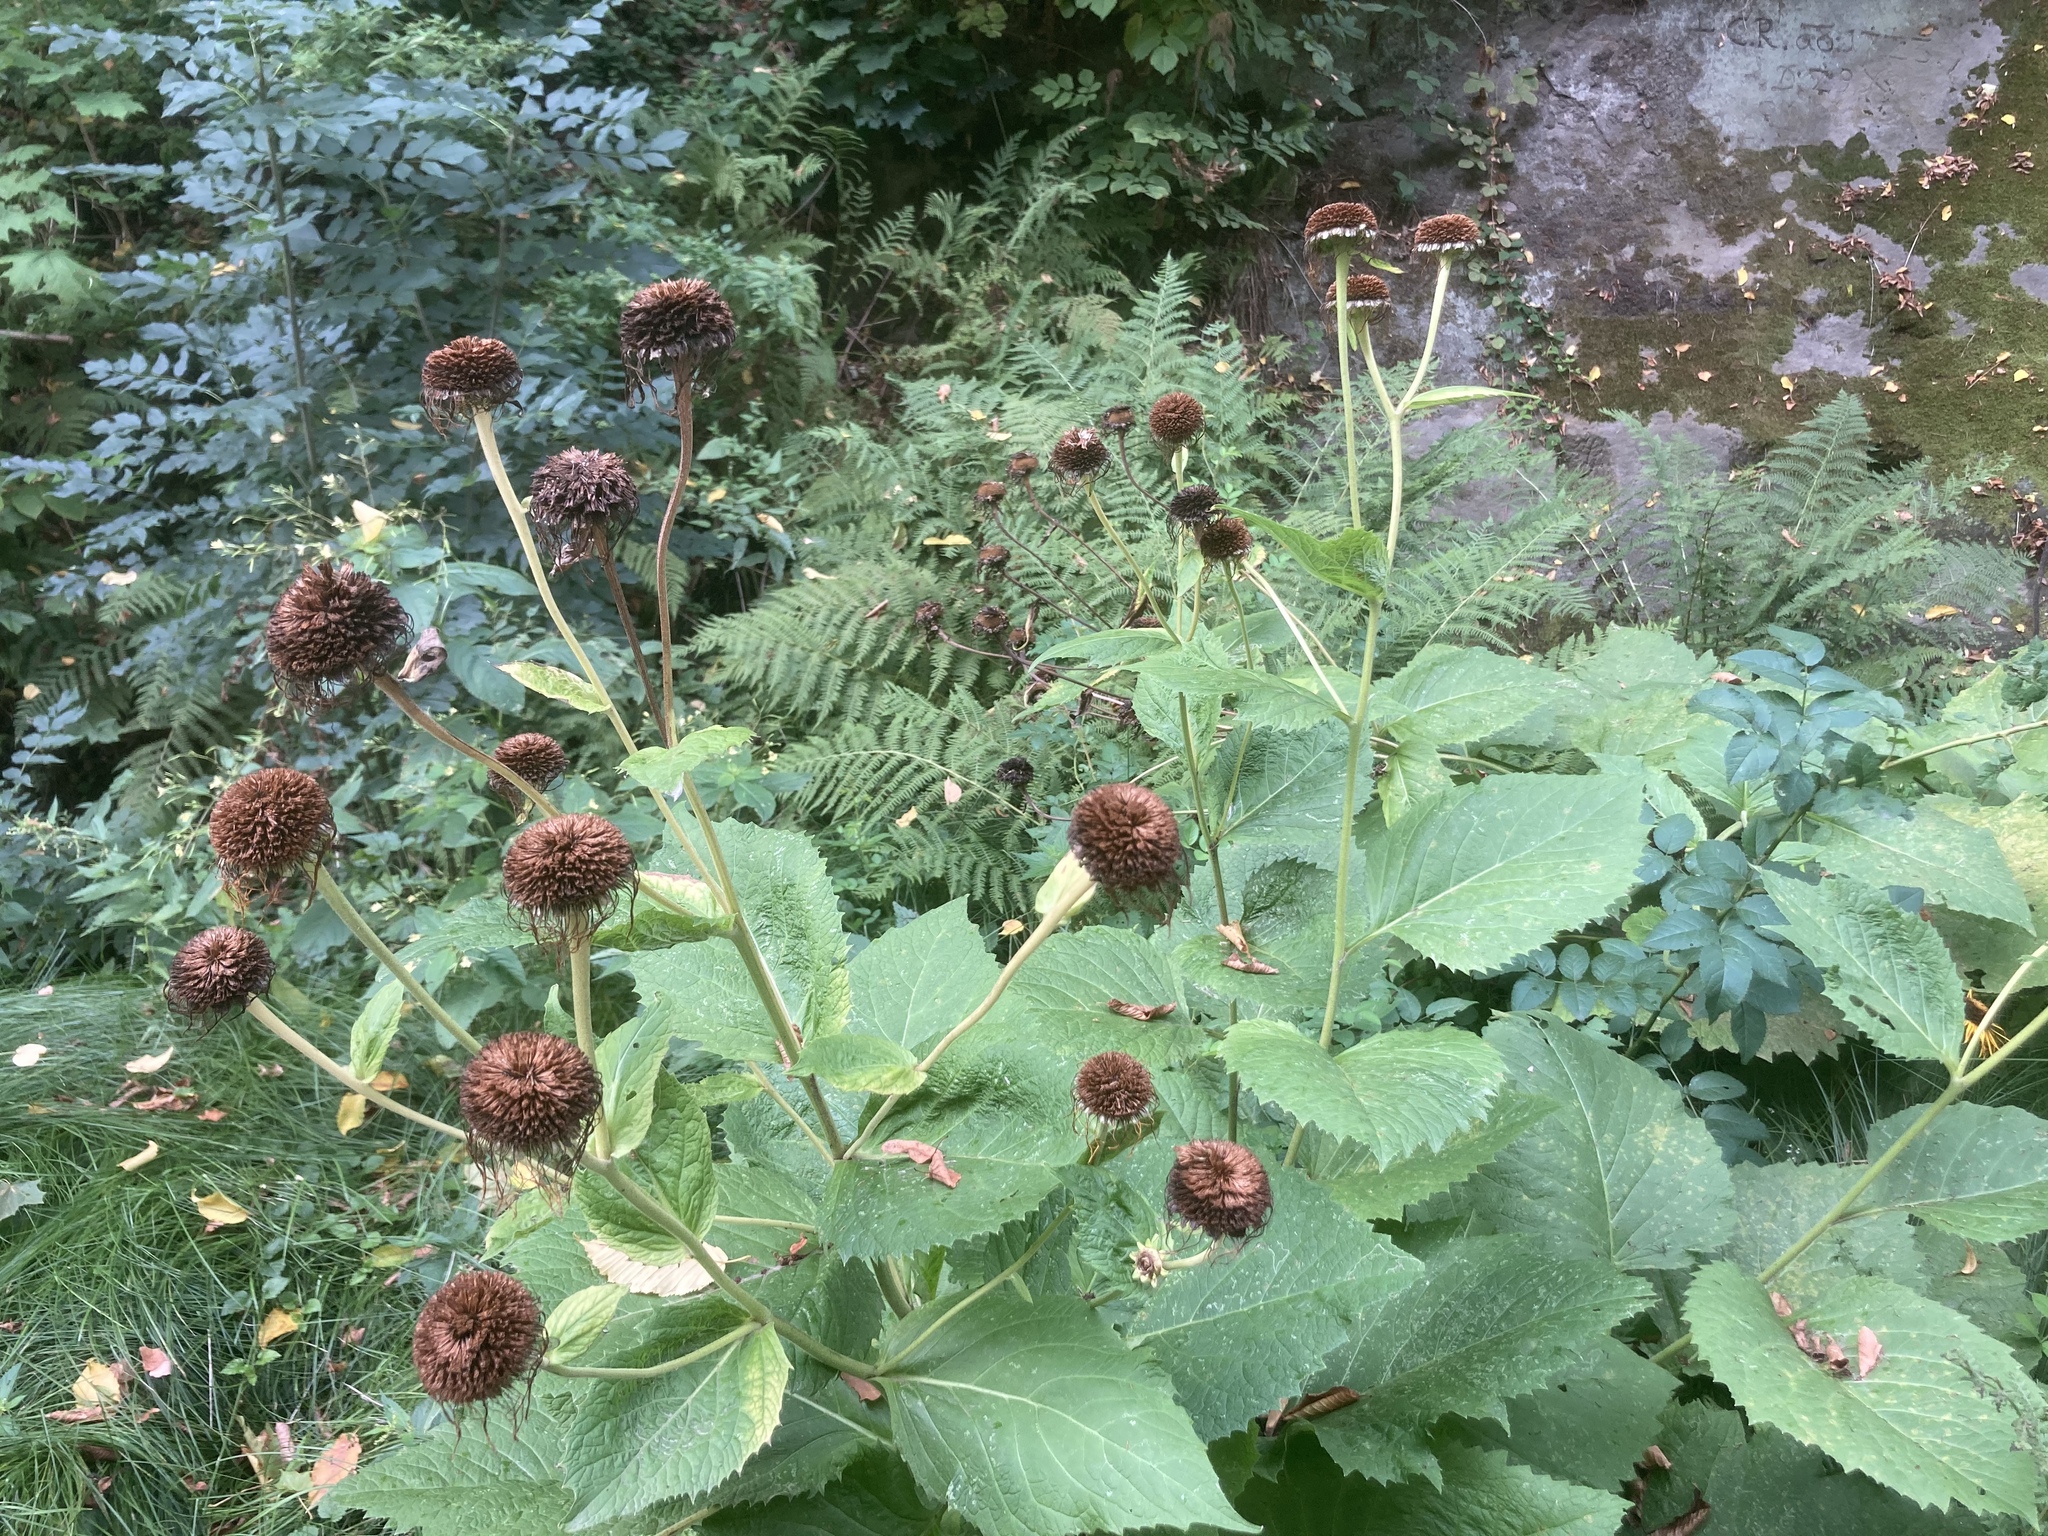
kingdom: Plantae
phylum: Tracheophyta
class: Magnoliopsida
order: Asterales
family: Asteraceae
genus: Telekia
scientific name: Telekia speciosa
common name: Yellow oxeye
